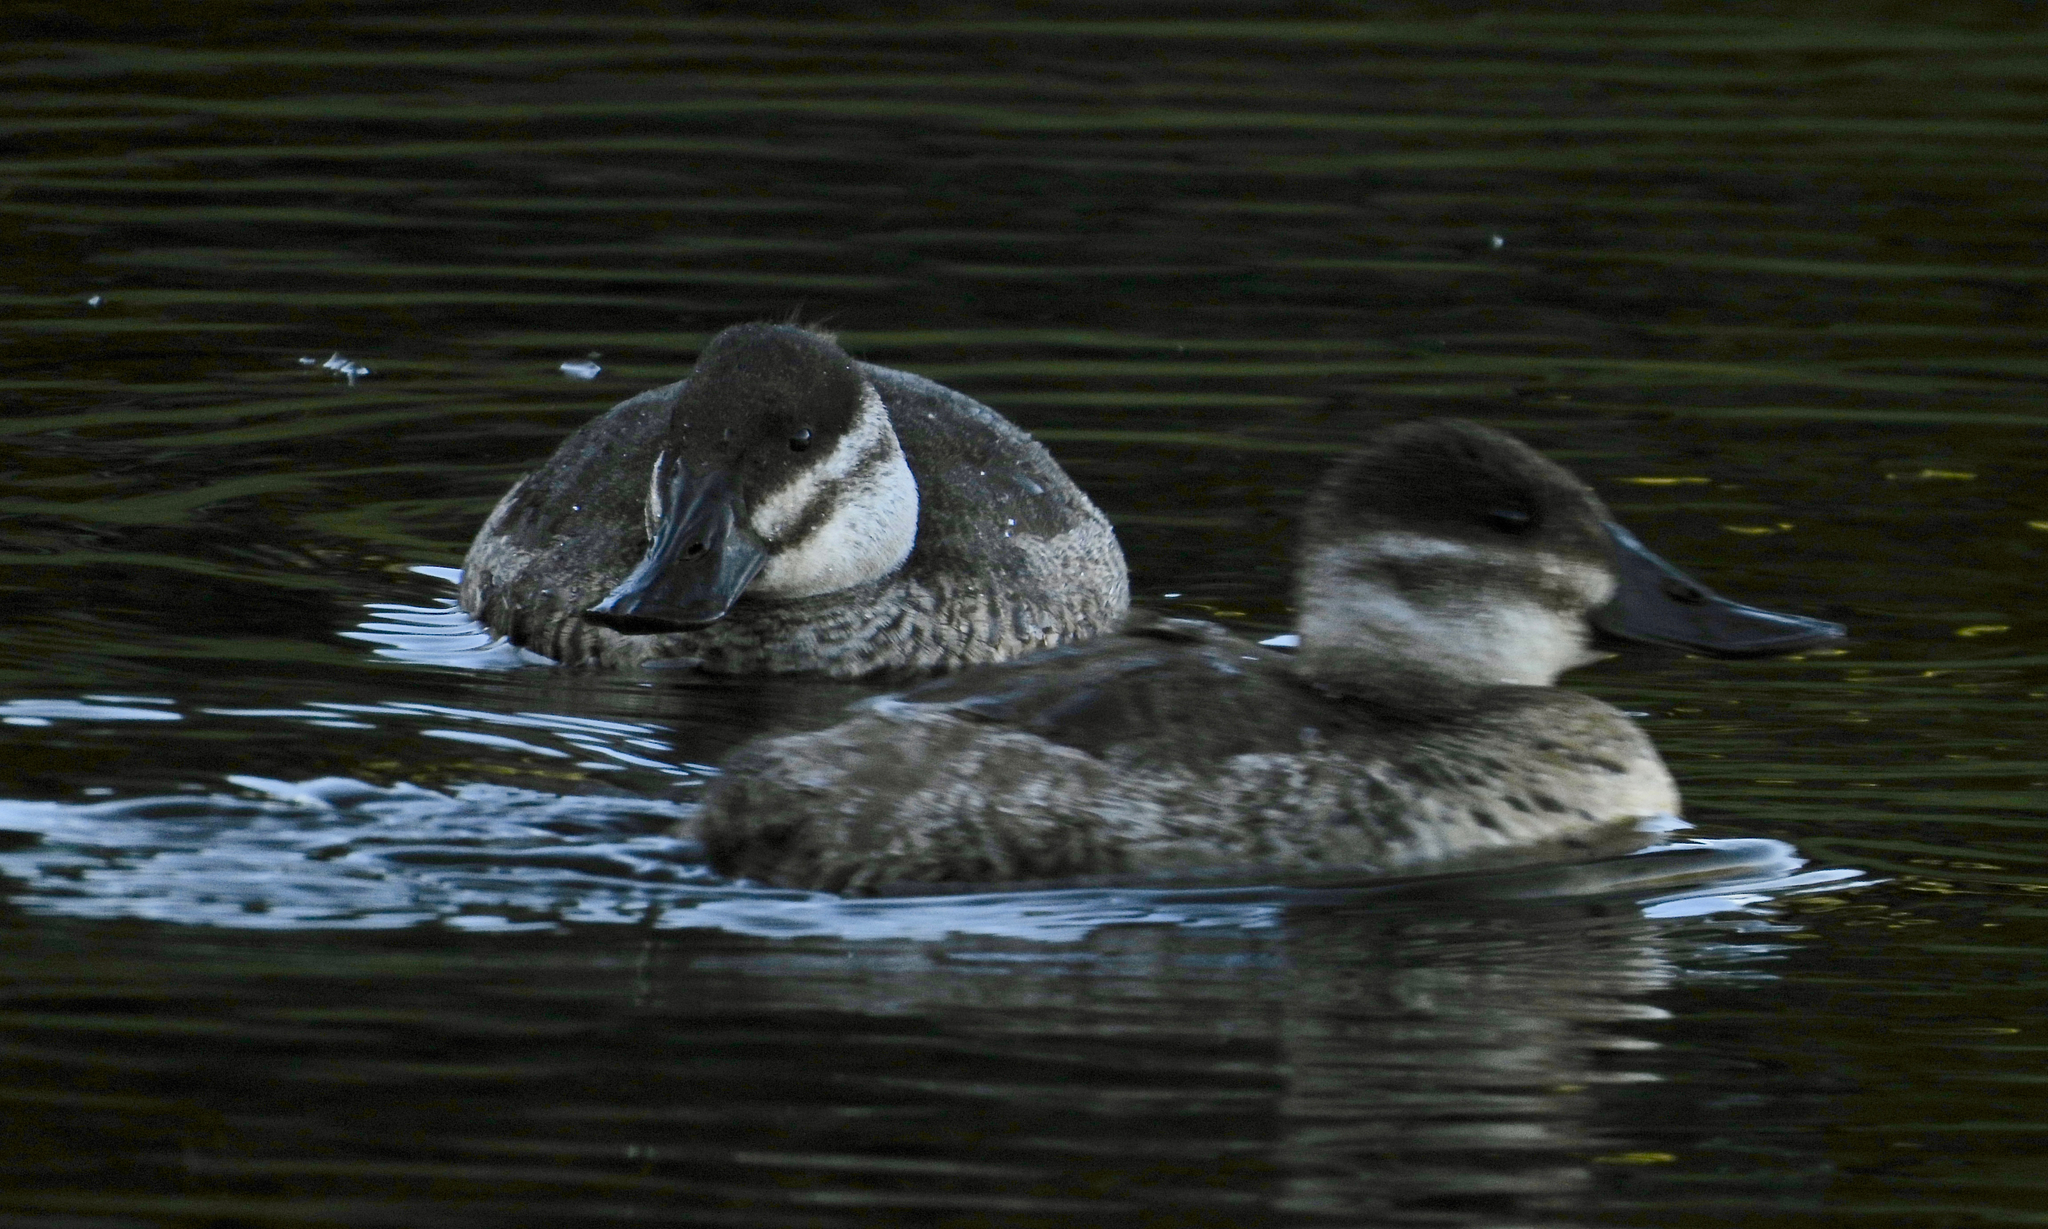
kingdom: Animalia
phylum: Chordata
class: Aves
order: Anseriformes
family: Anatidae
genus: Oxyura
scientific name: Oxyura jamaicensis
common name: Ruddy duck
